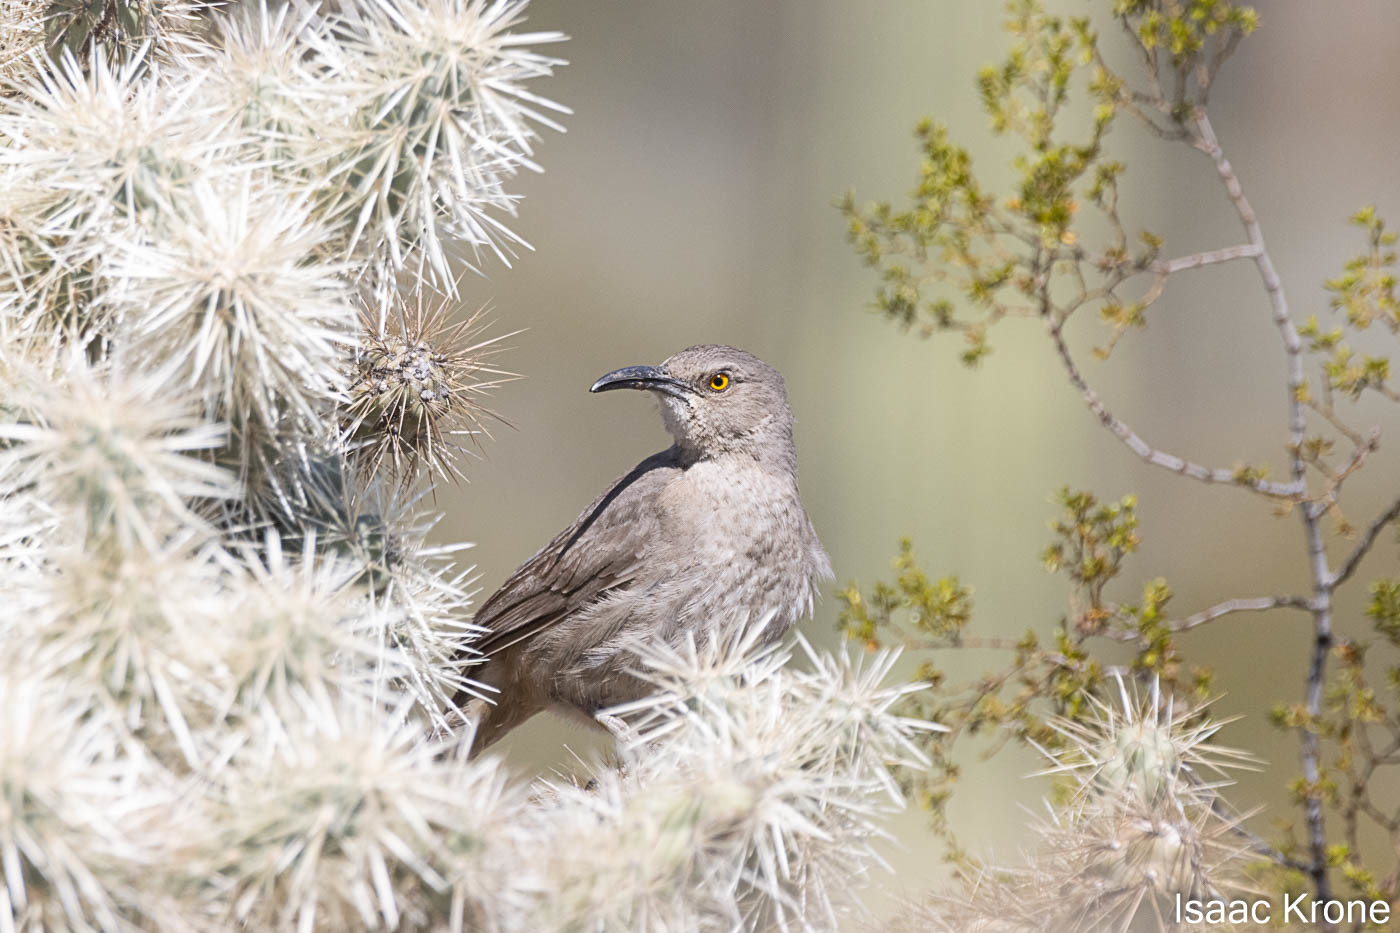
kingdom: Animalia
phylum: Chordata
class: Aves
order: Passeriformes
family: Mimidae
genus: Toxostoma
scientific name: Toxostoma curvirostre
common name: Curve-billed thrasher
